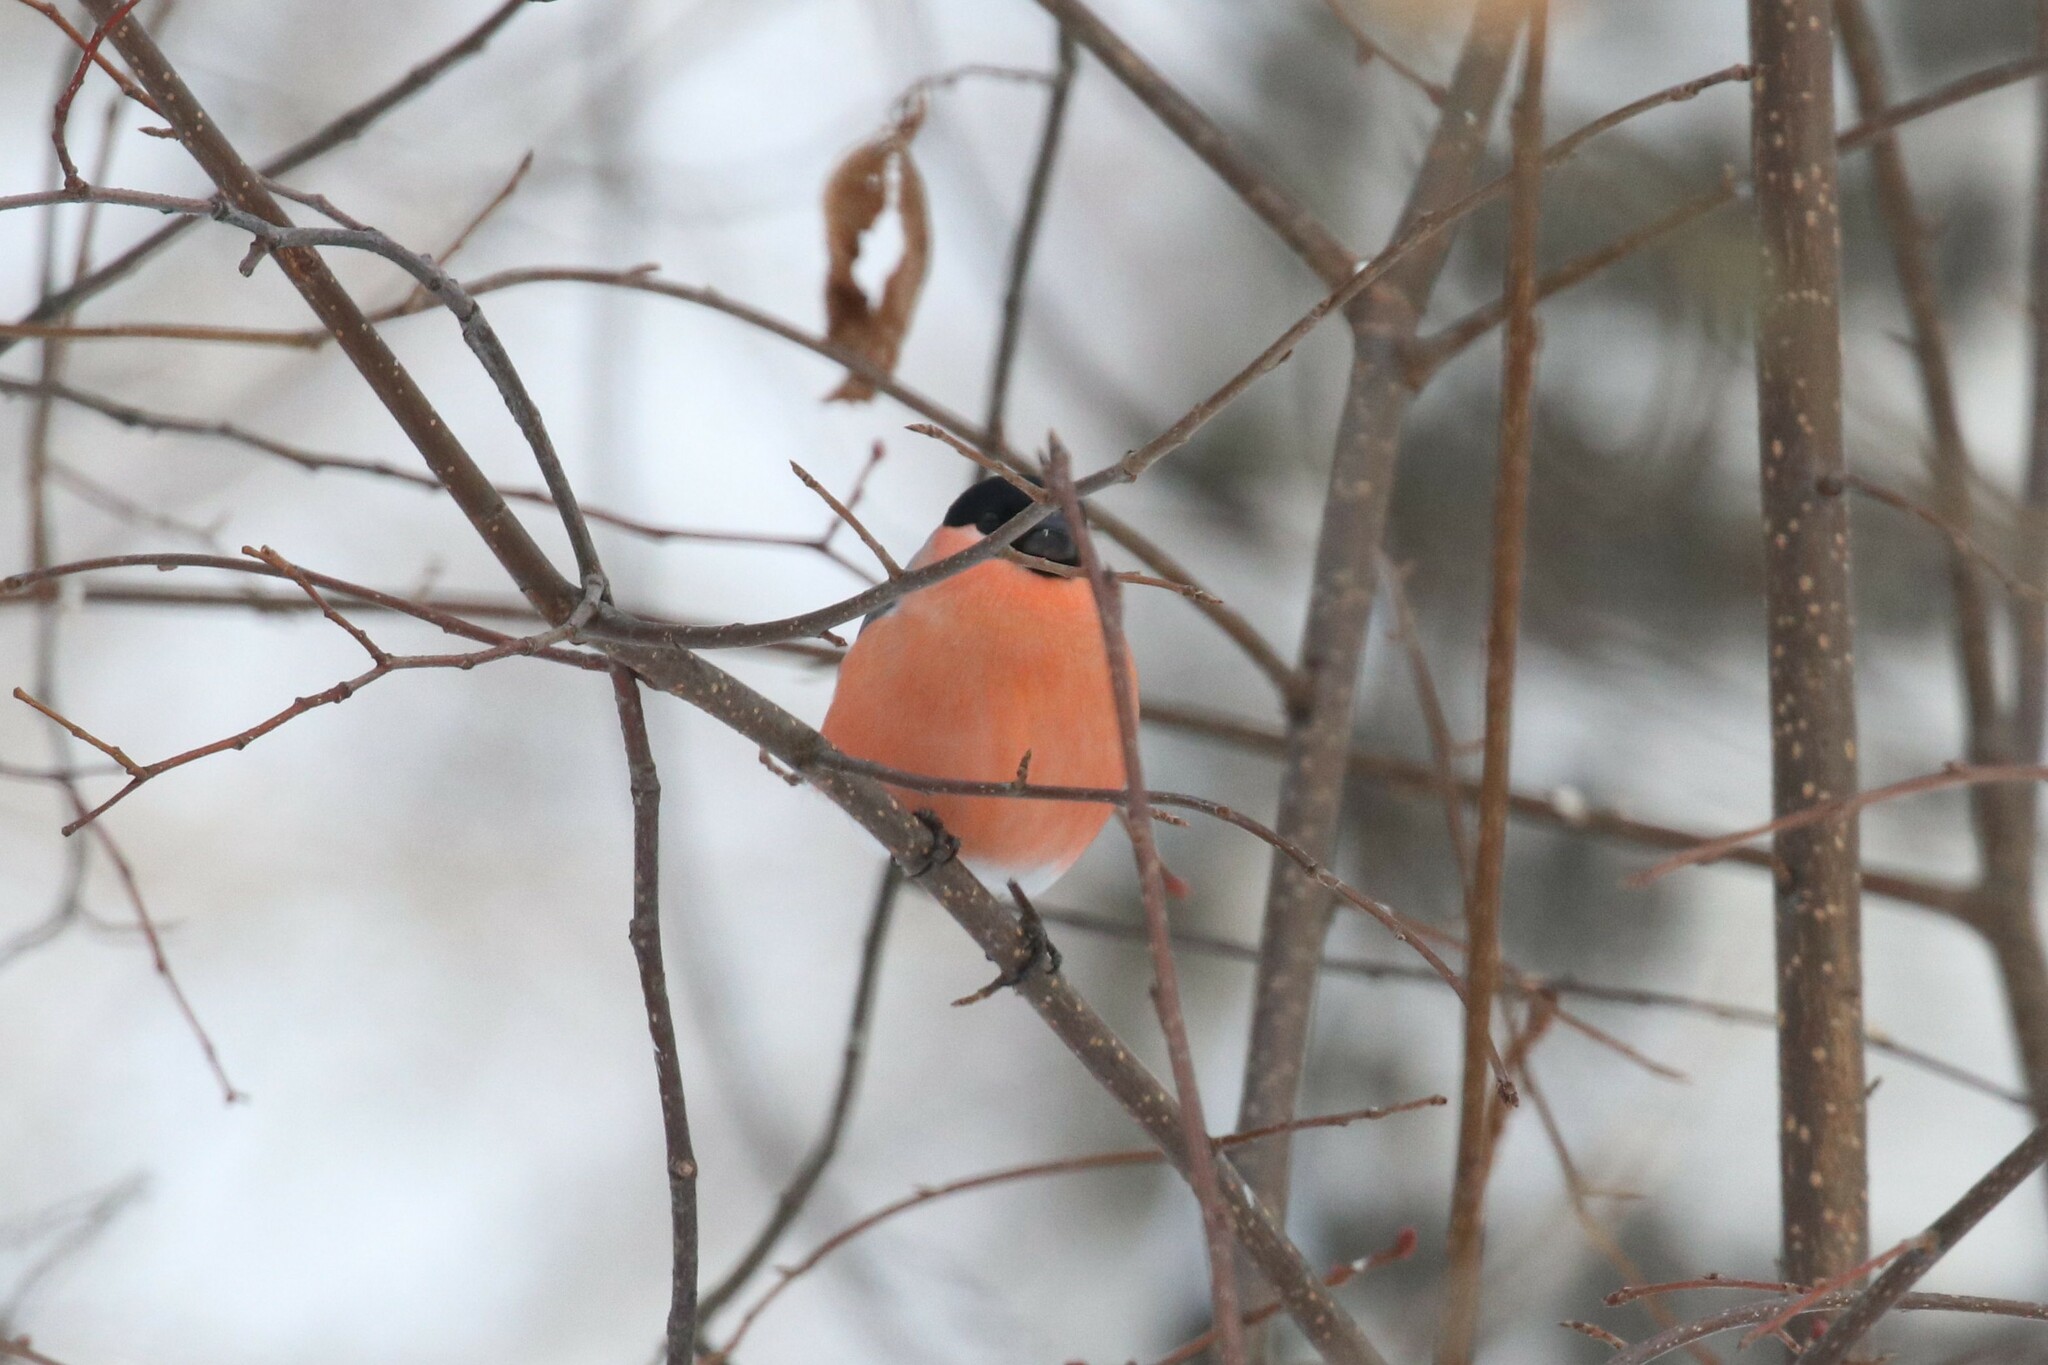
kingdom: Animalia
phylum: Chordata
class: Aves
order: Passeriformes
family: Fringillidae
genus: Pyrrhula
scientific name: Pyrrhula pyrrhula
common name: Eurasian bullfinch
